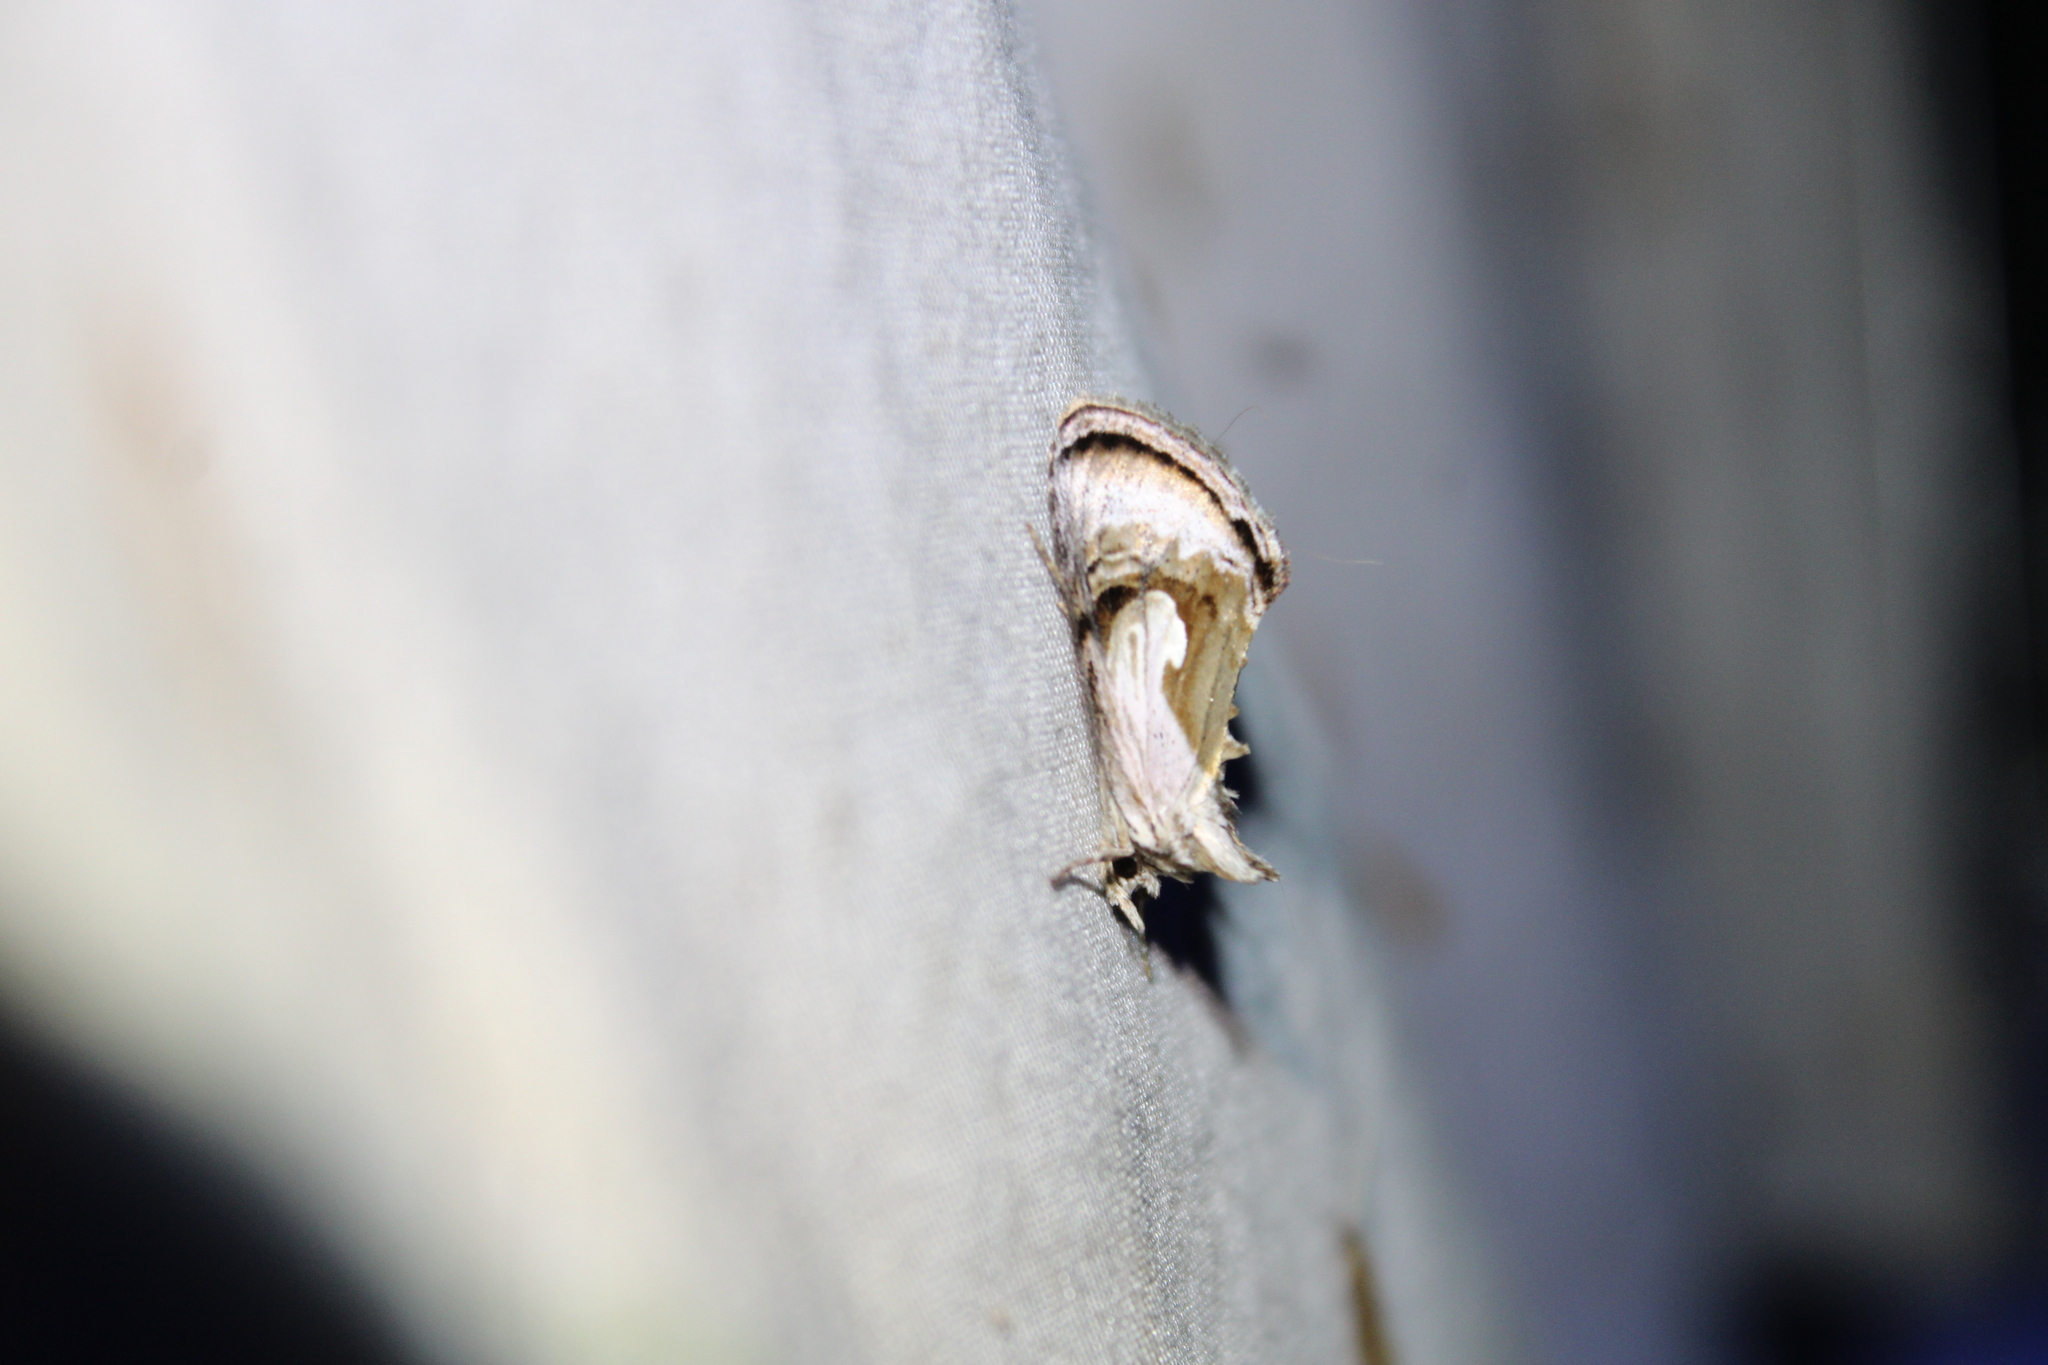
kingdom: Animalia
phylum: Arthropoda
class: Insecta
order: Lepidoptera
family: Noctuidae
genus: Chrysanympha
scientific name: Chrysanympha formosa
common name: Formosa looper moth
